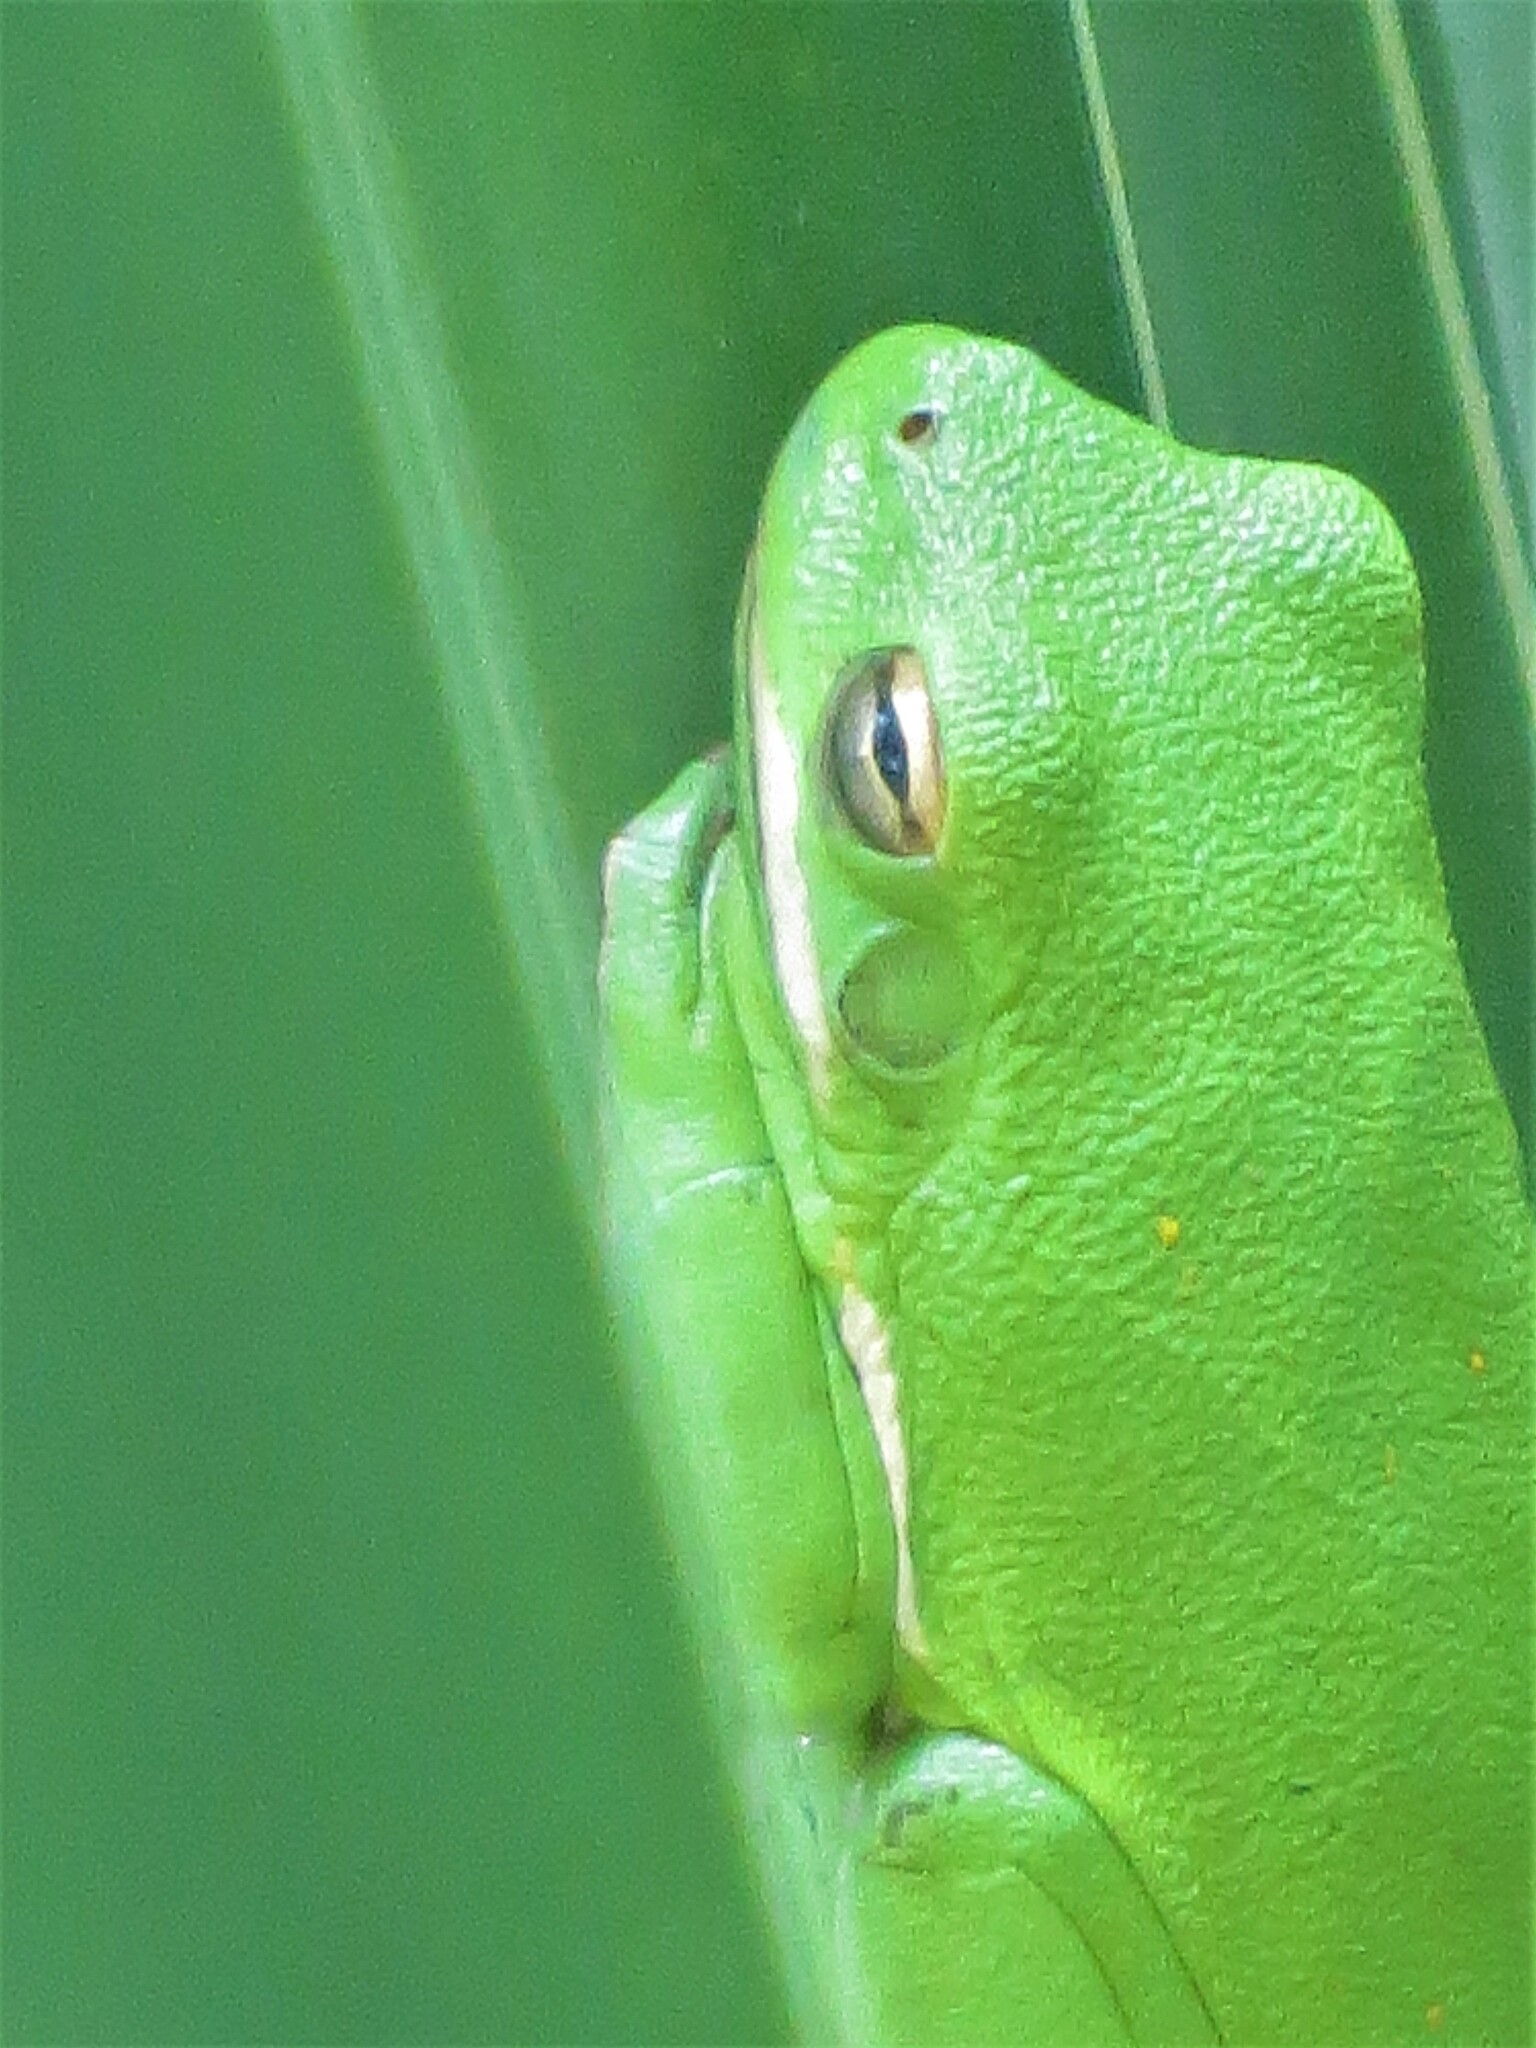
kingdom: Animalia
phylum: Chordata
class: Amphibia
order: Anura
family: Hylidae
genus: Dryophytes
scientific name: Dryophytes cinereus
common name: Green treefrog
